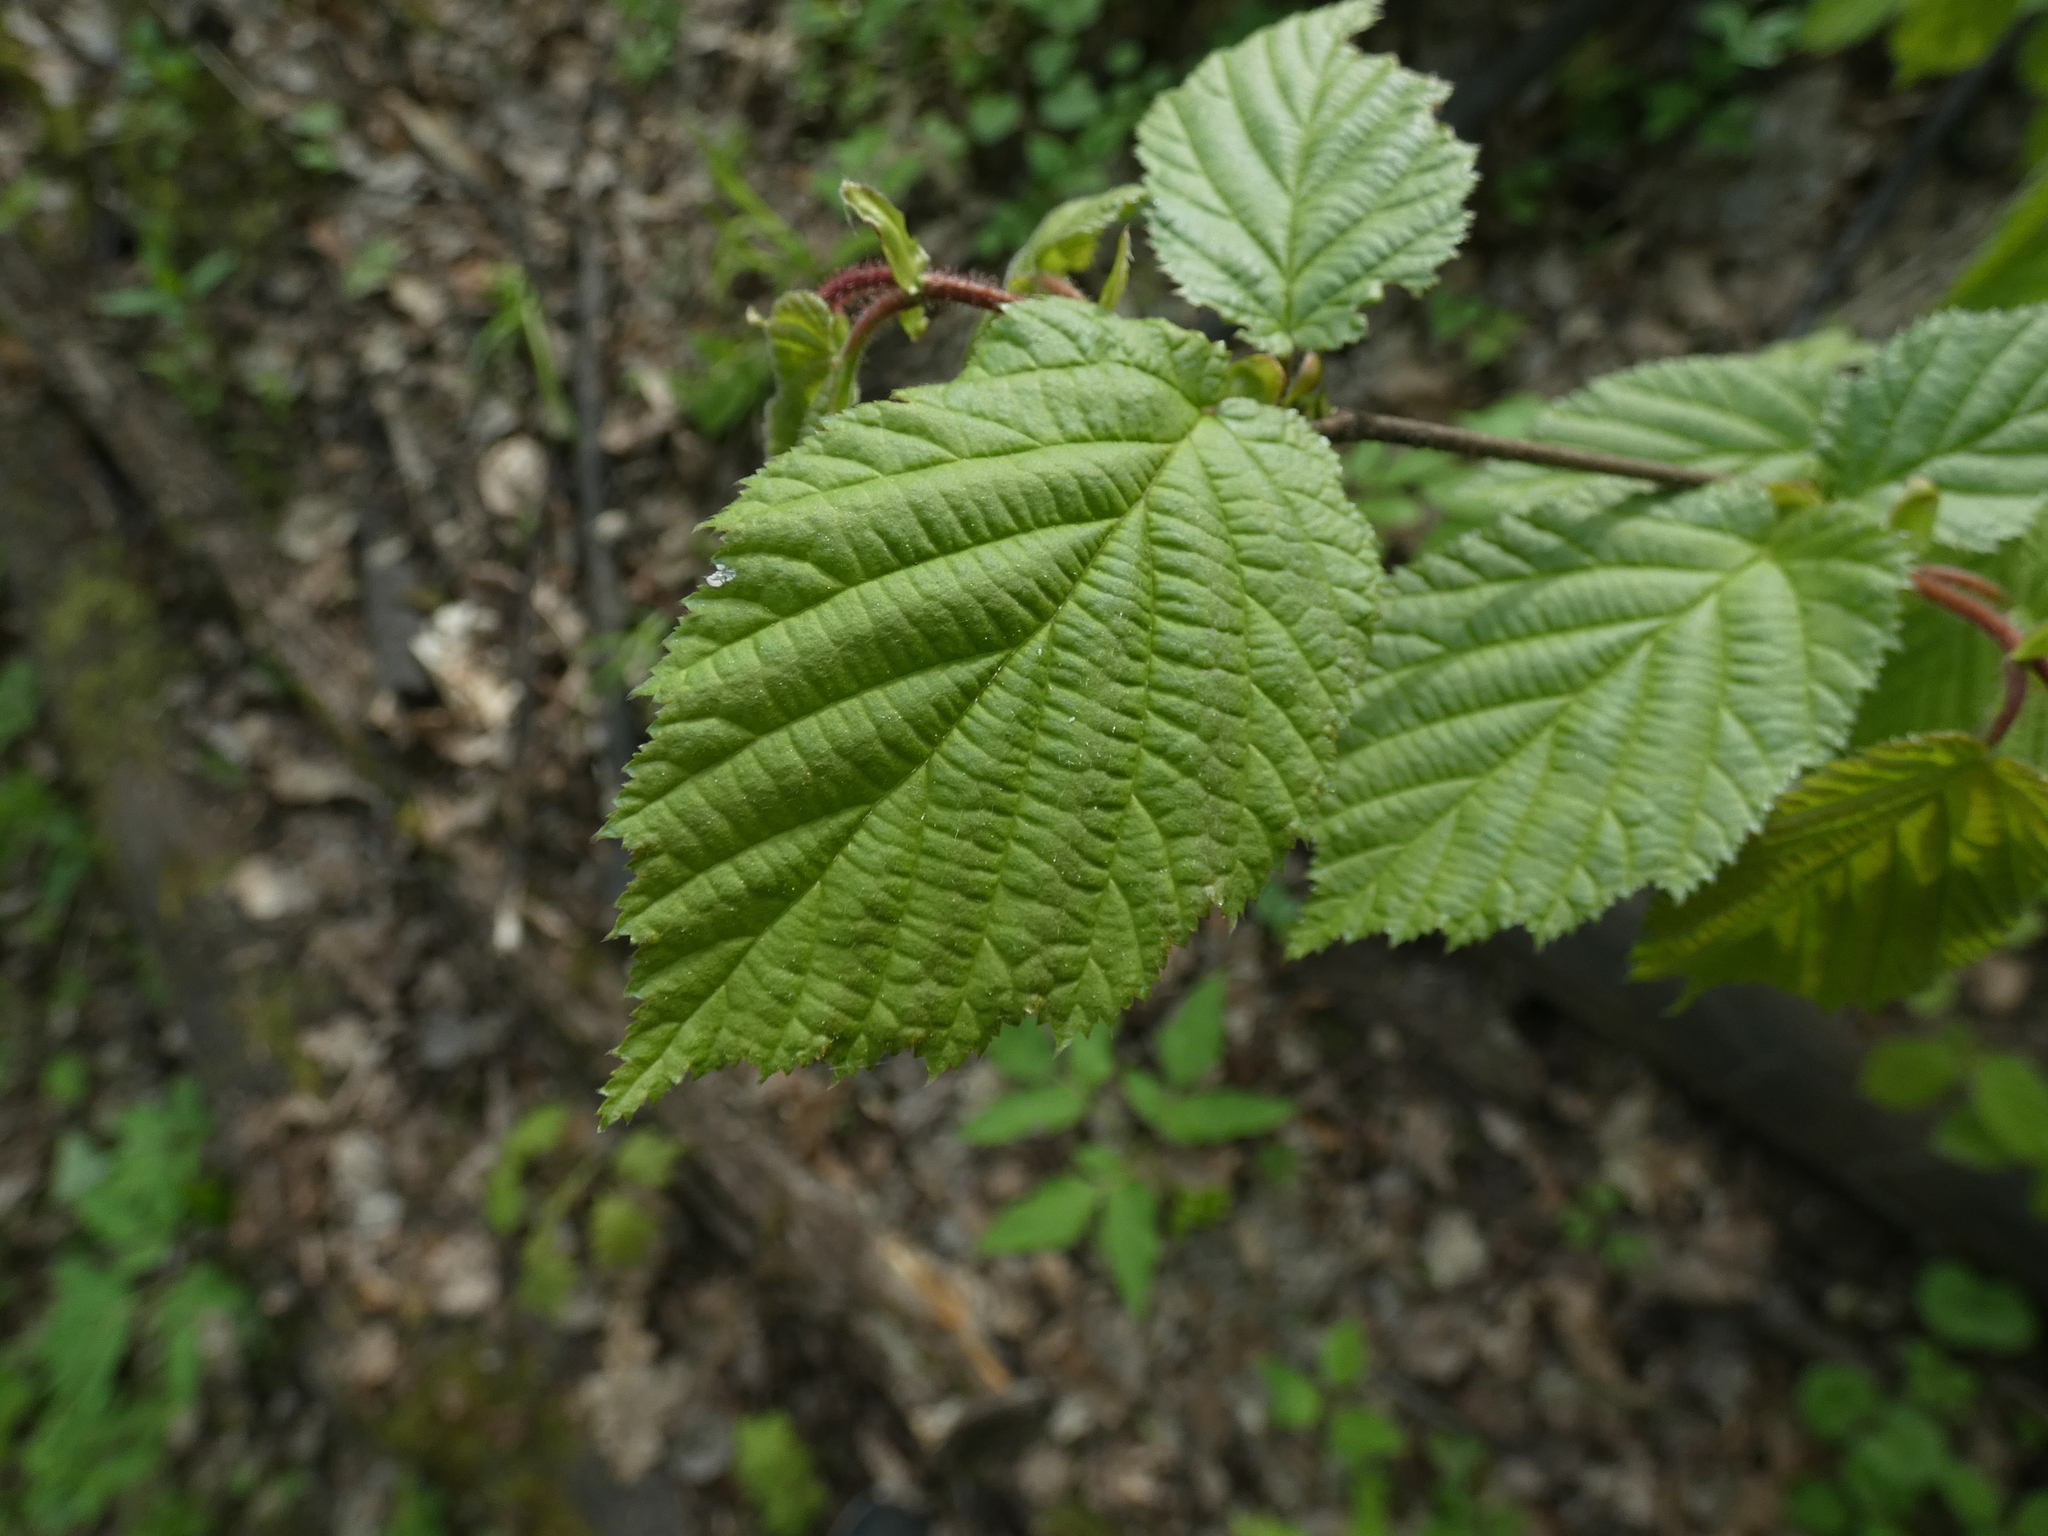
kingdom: Plantae
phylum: Tracheophyta
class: Magnoliopsida
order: Fagales
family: Betulaceae
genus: Corylus
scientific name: Corylus avellana
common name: European hazel
